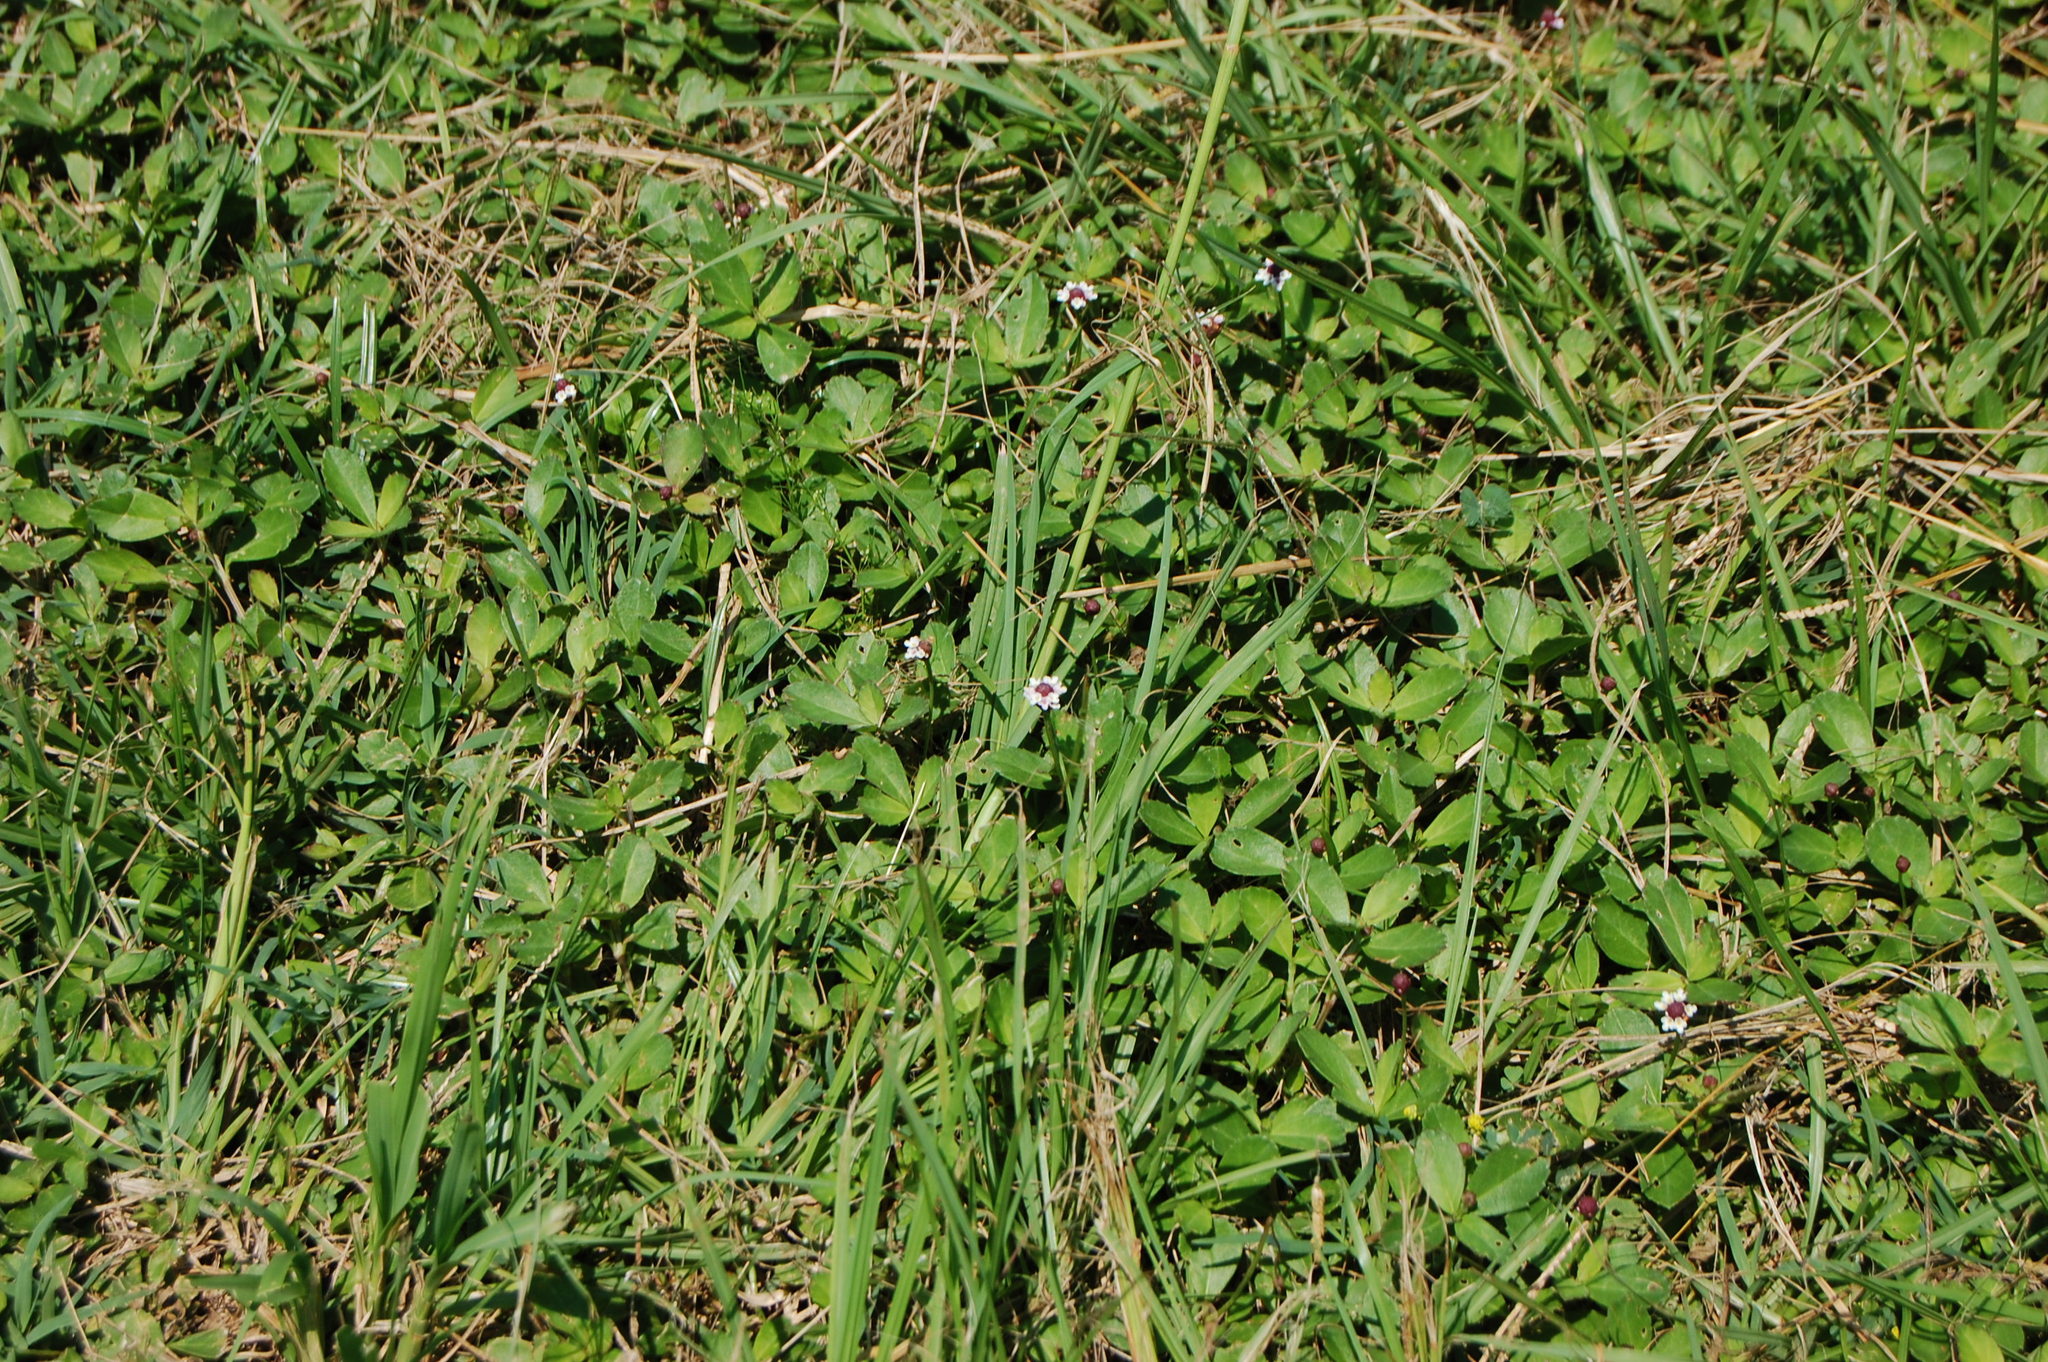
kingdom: Plantae
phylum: Tracheophyta
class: Magnoliopsida
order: Lamiales
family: Verbenaceae
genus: Phyla
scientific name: Phyla nodiflora
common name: Frogfruit
